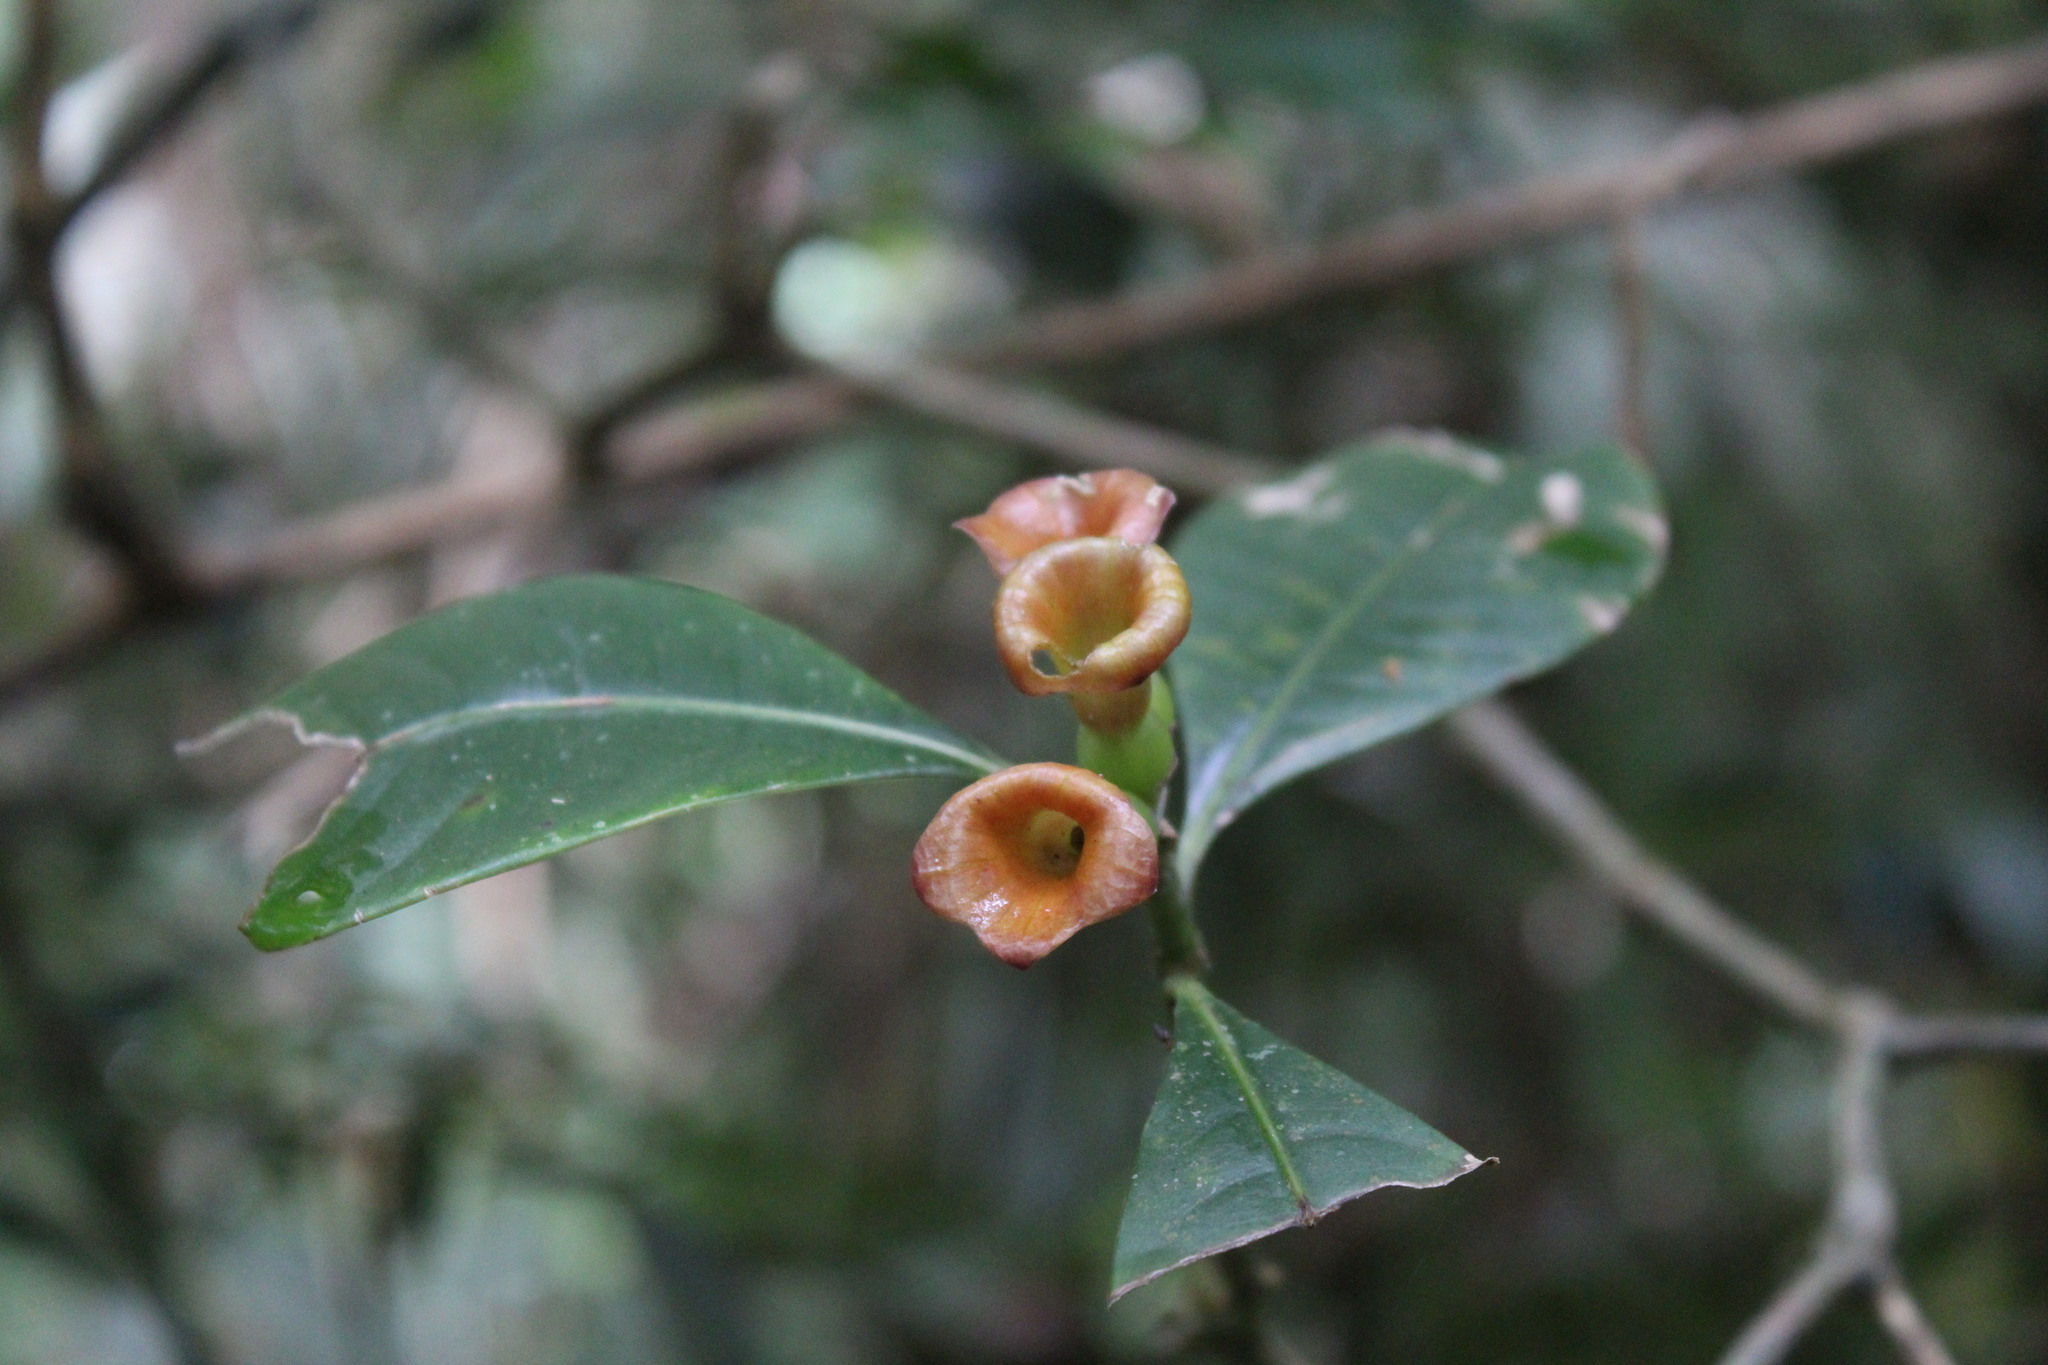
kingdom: Plantae
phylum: Tracheophyta
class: Magnoliopsida
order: Gentianales
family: Rubiaceae
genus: Psychotria
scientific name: Psychotria nuda
